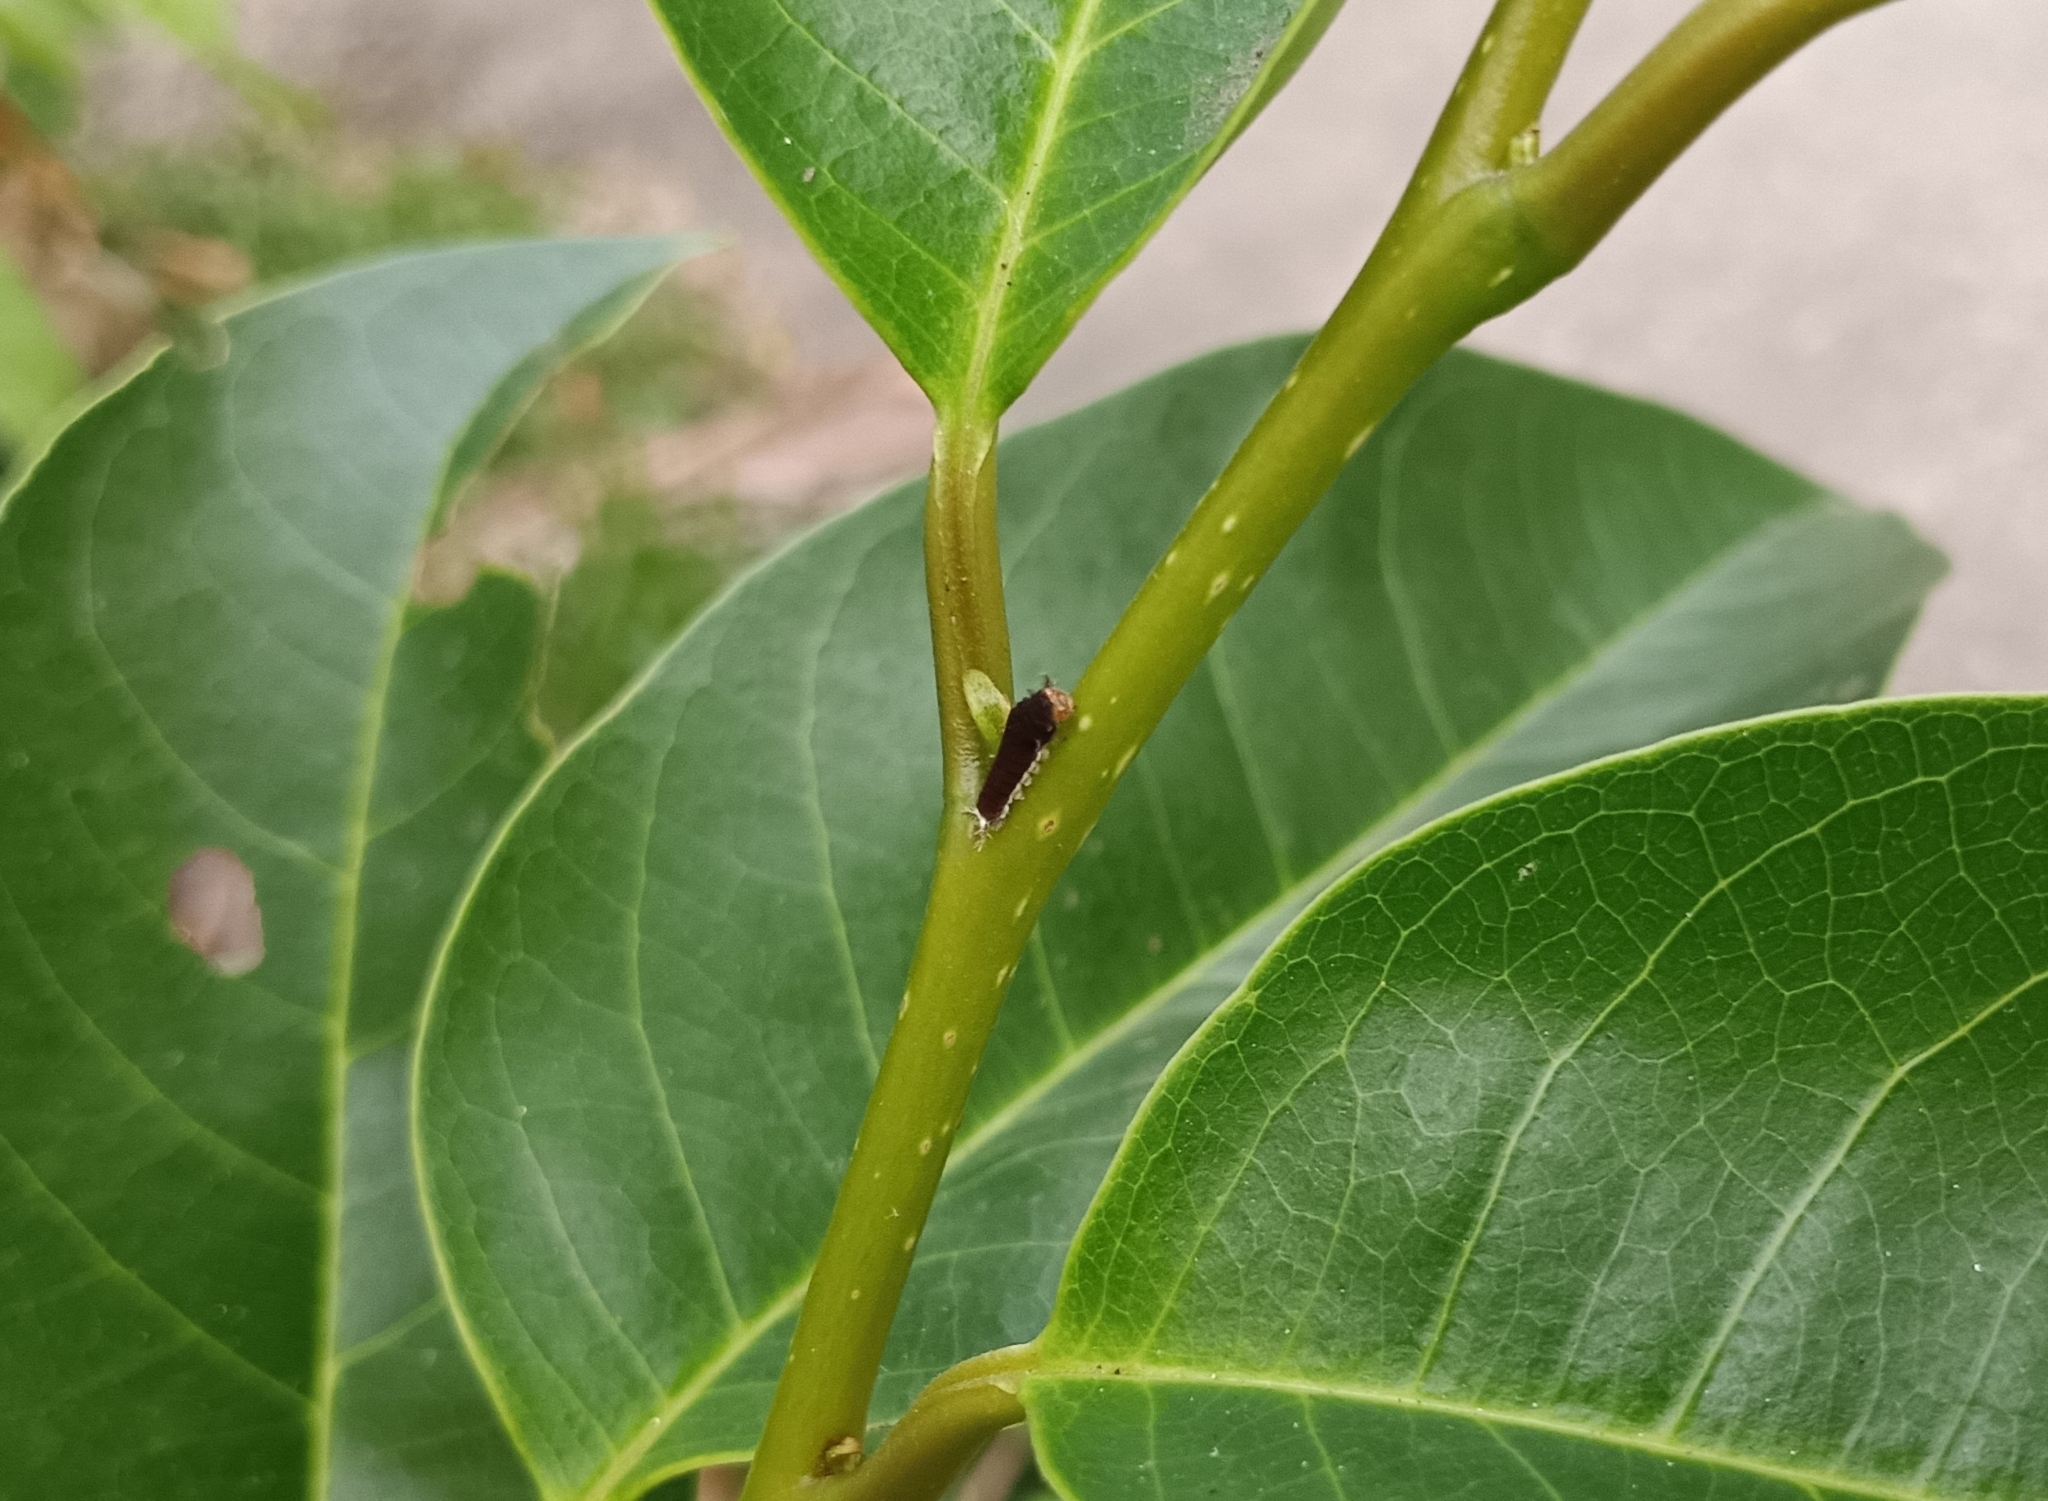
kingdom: Animalia
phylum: Arthropoda
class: Insecta
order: Lepidoptera
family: Papilionidae
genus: Graphium
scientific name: Graphium doson
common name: Common jay
